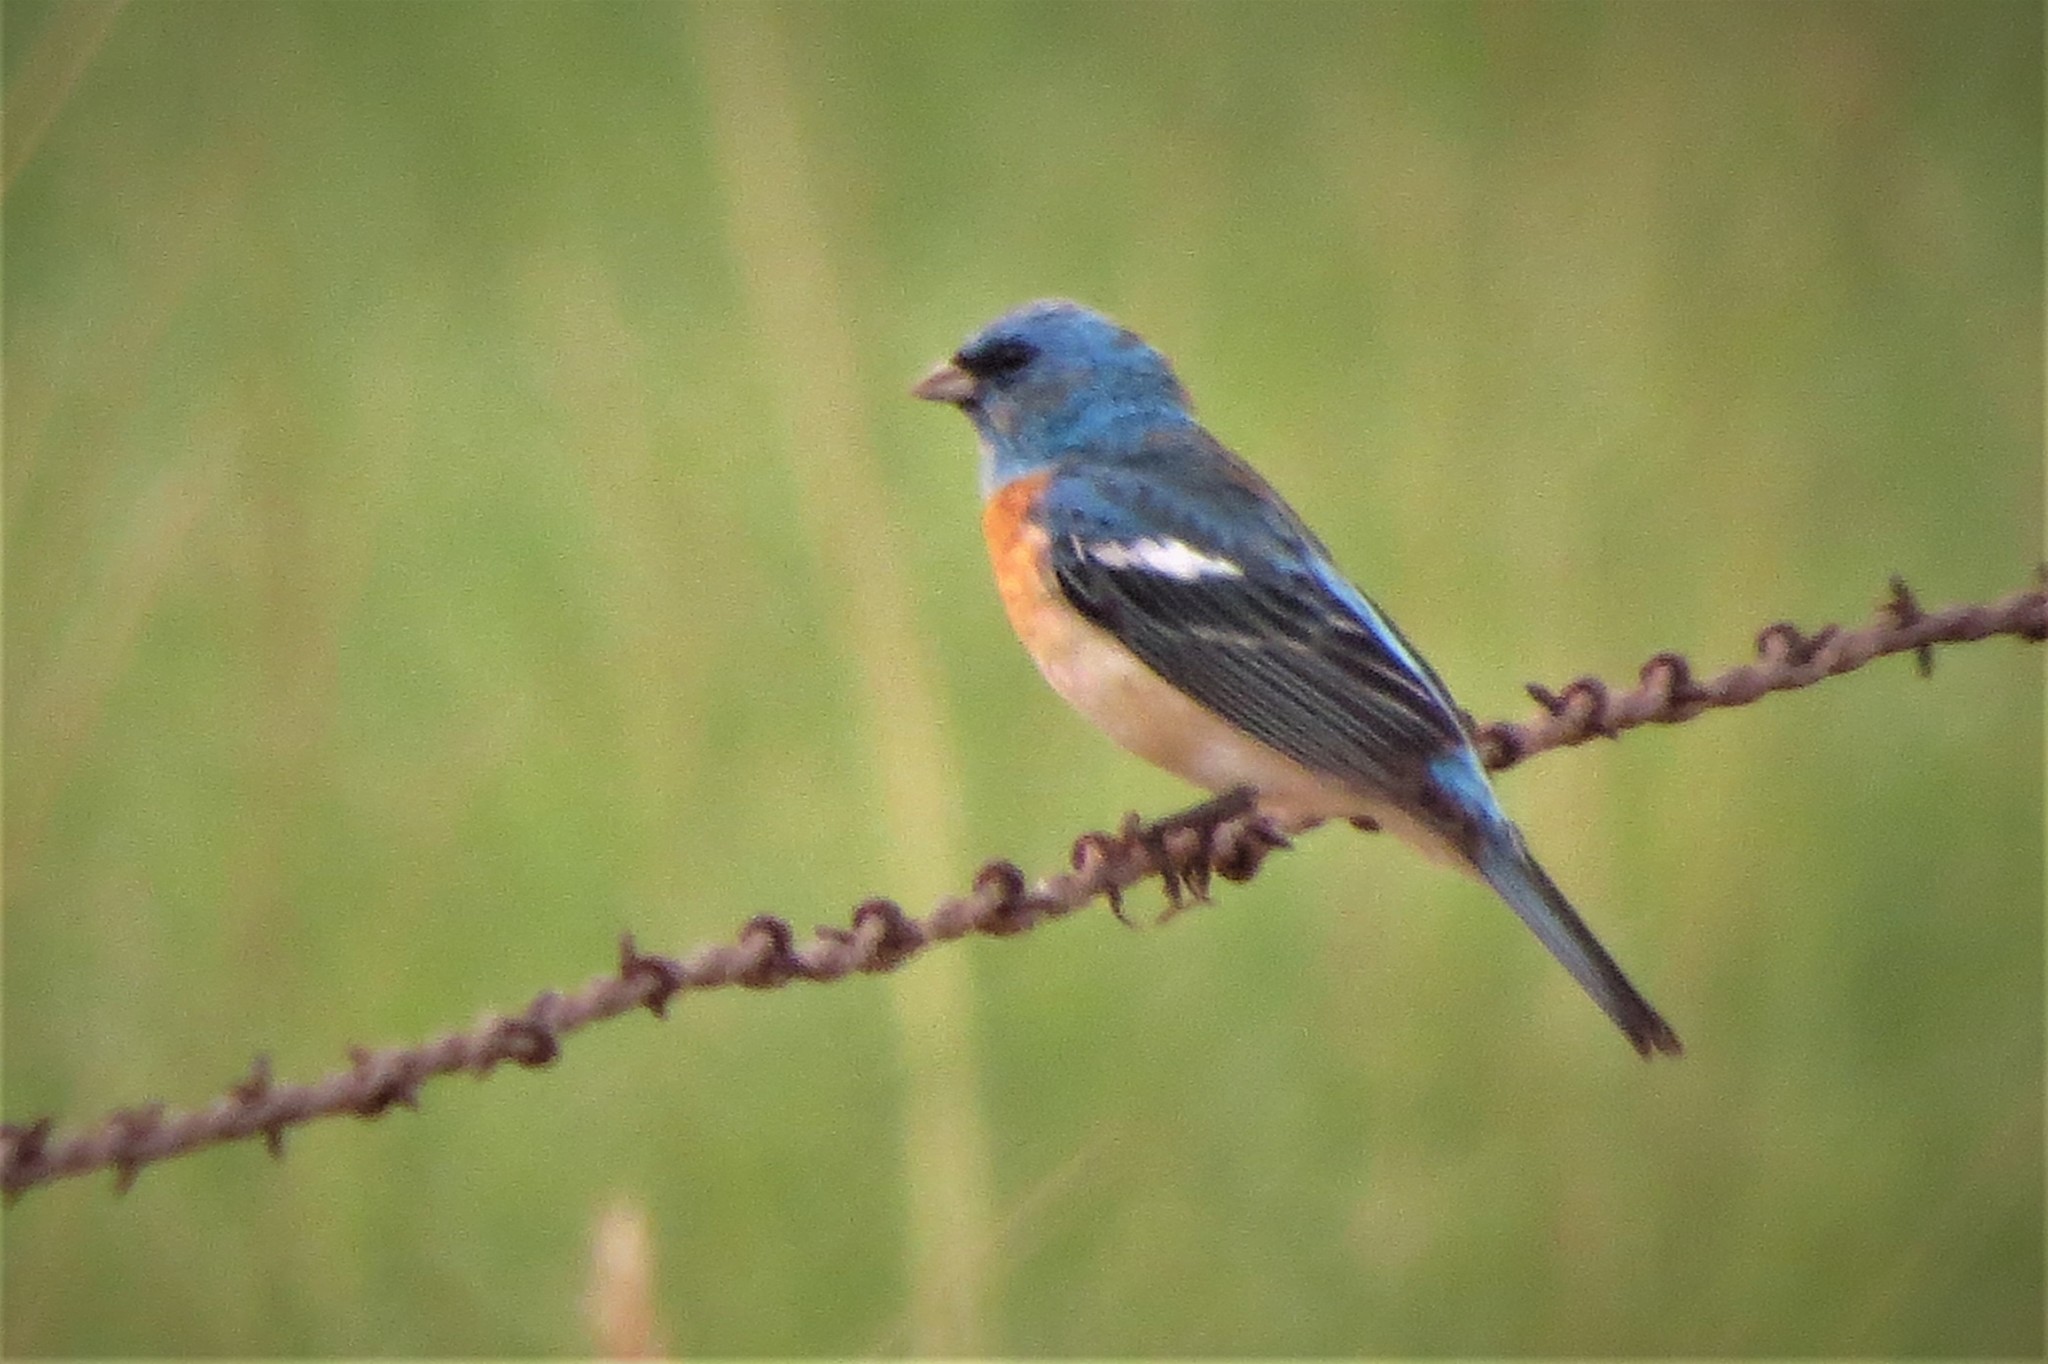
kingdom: Animalia
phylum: Chordata
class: Aves
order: Passeriformes
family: Cardinalidae
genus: Passerina
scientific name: Passerina amoena
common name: Lazuli bunting
